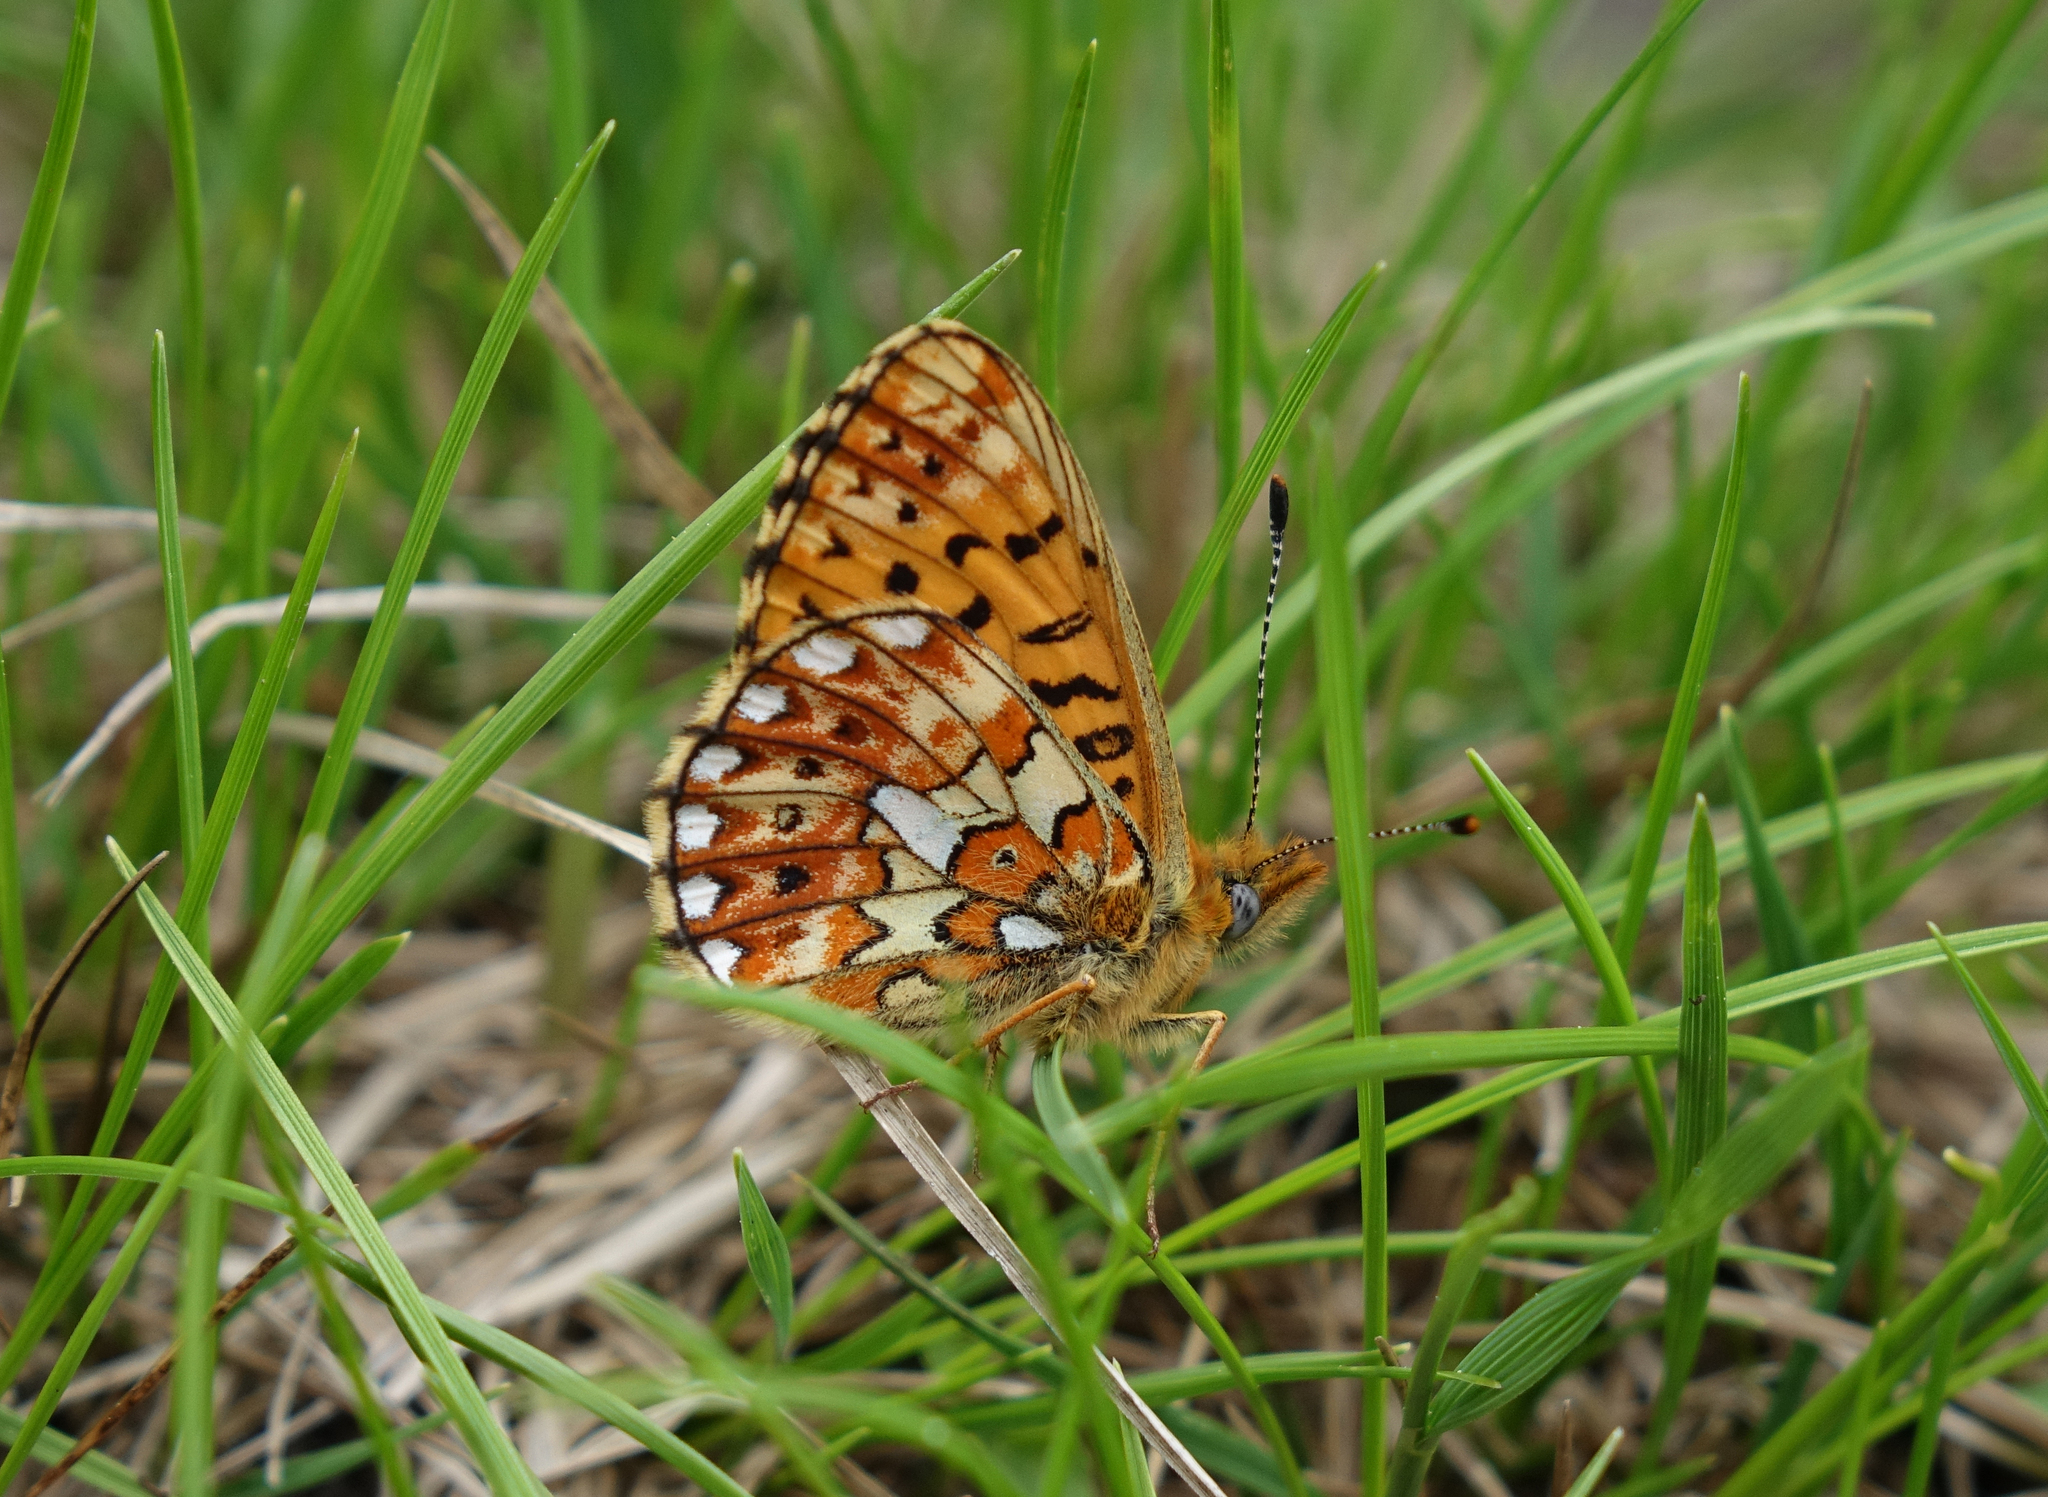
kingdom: Animalia
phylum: Arthropoda
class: Insecta
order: Lepidoptera
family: Nymphalidae
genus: Clossiana
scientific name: Clossiana euphrosyne
